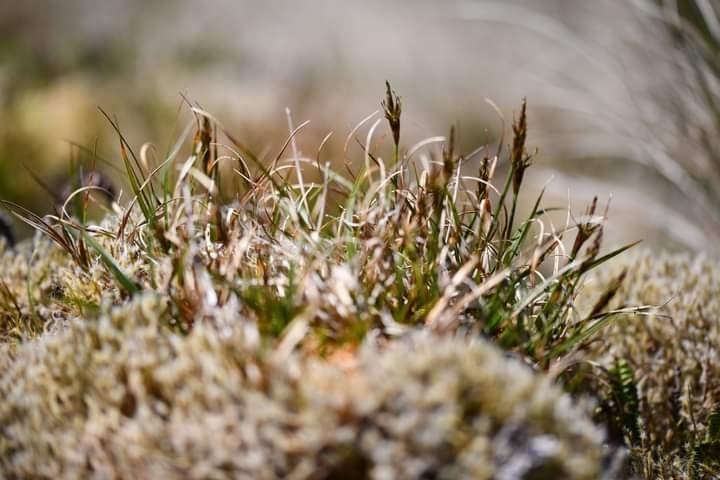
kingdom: Plantae
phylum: Tracheophyta
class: Liliopsida
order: Poales
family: Cyperaceae
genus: Carex
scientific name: Carex austrocompacta
